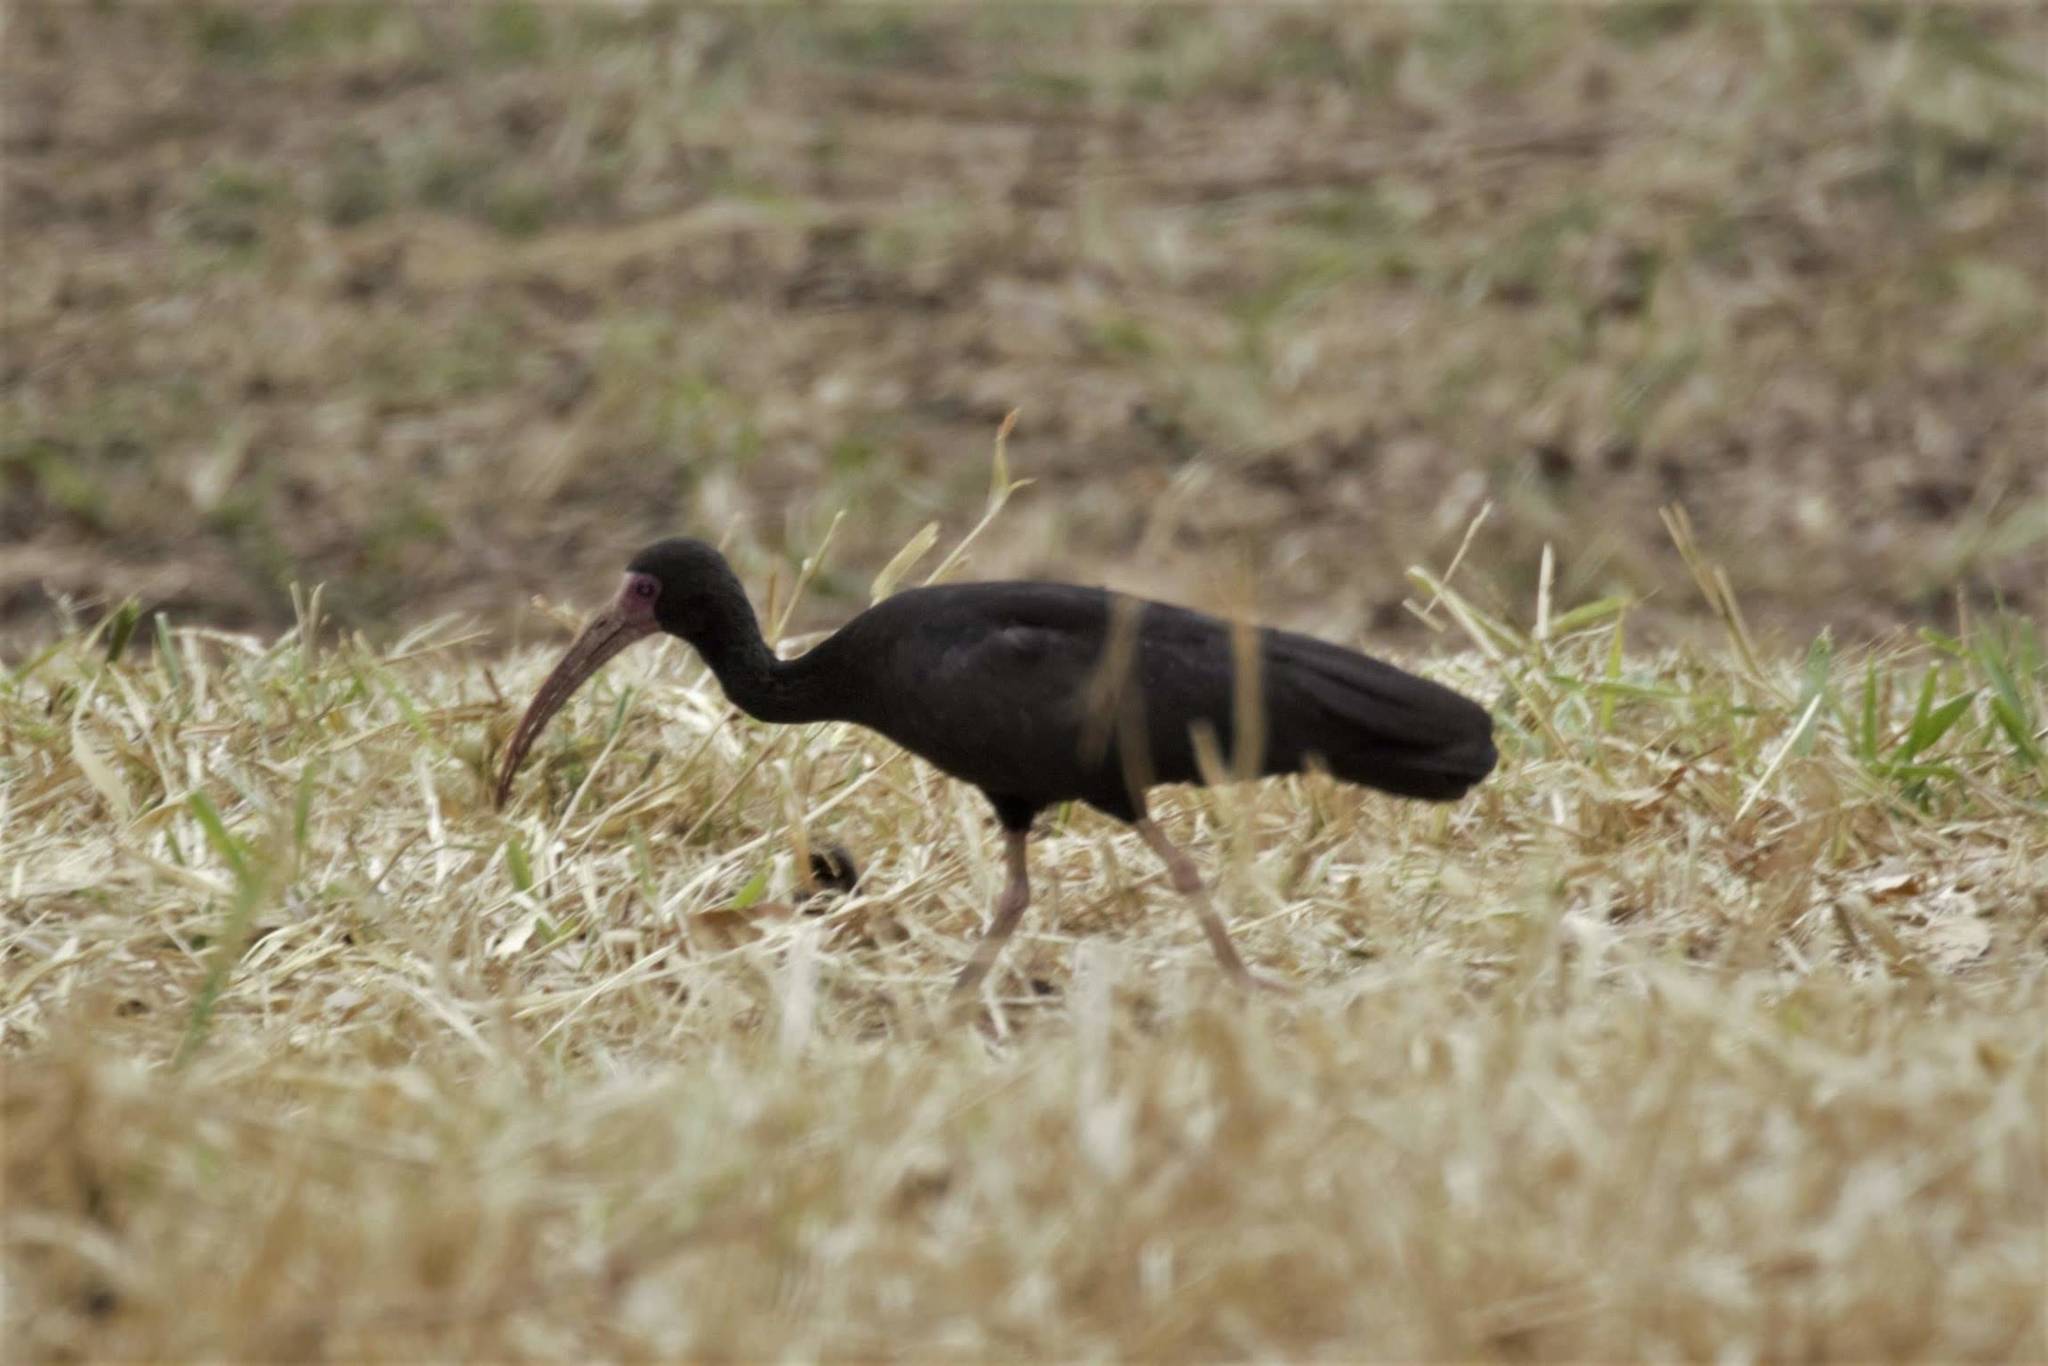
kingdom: Animalia
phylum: Chordata
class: Aves
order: Pelecaniformes
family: Threskiornithidae
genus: Phimosus
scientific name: Phimosus infuscatus
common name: Bare-faced ibis
